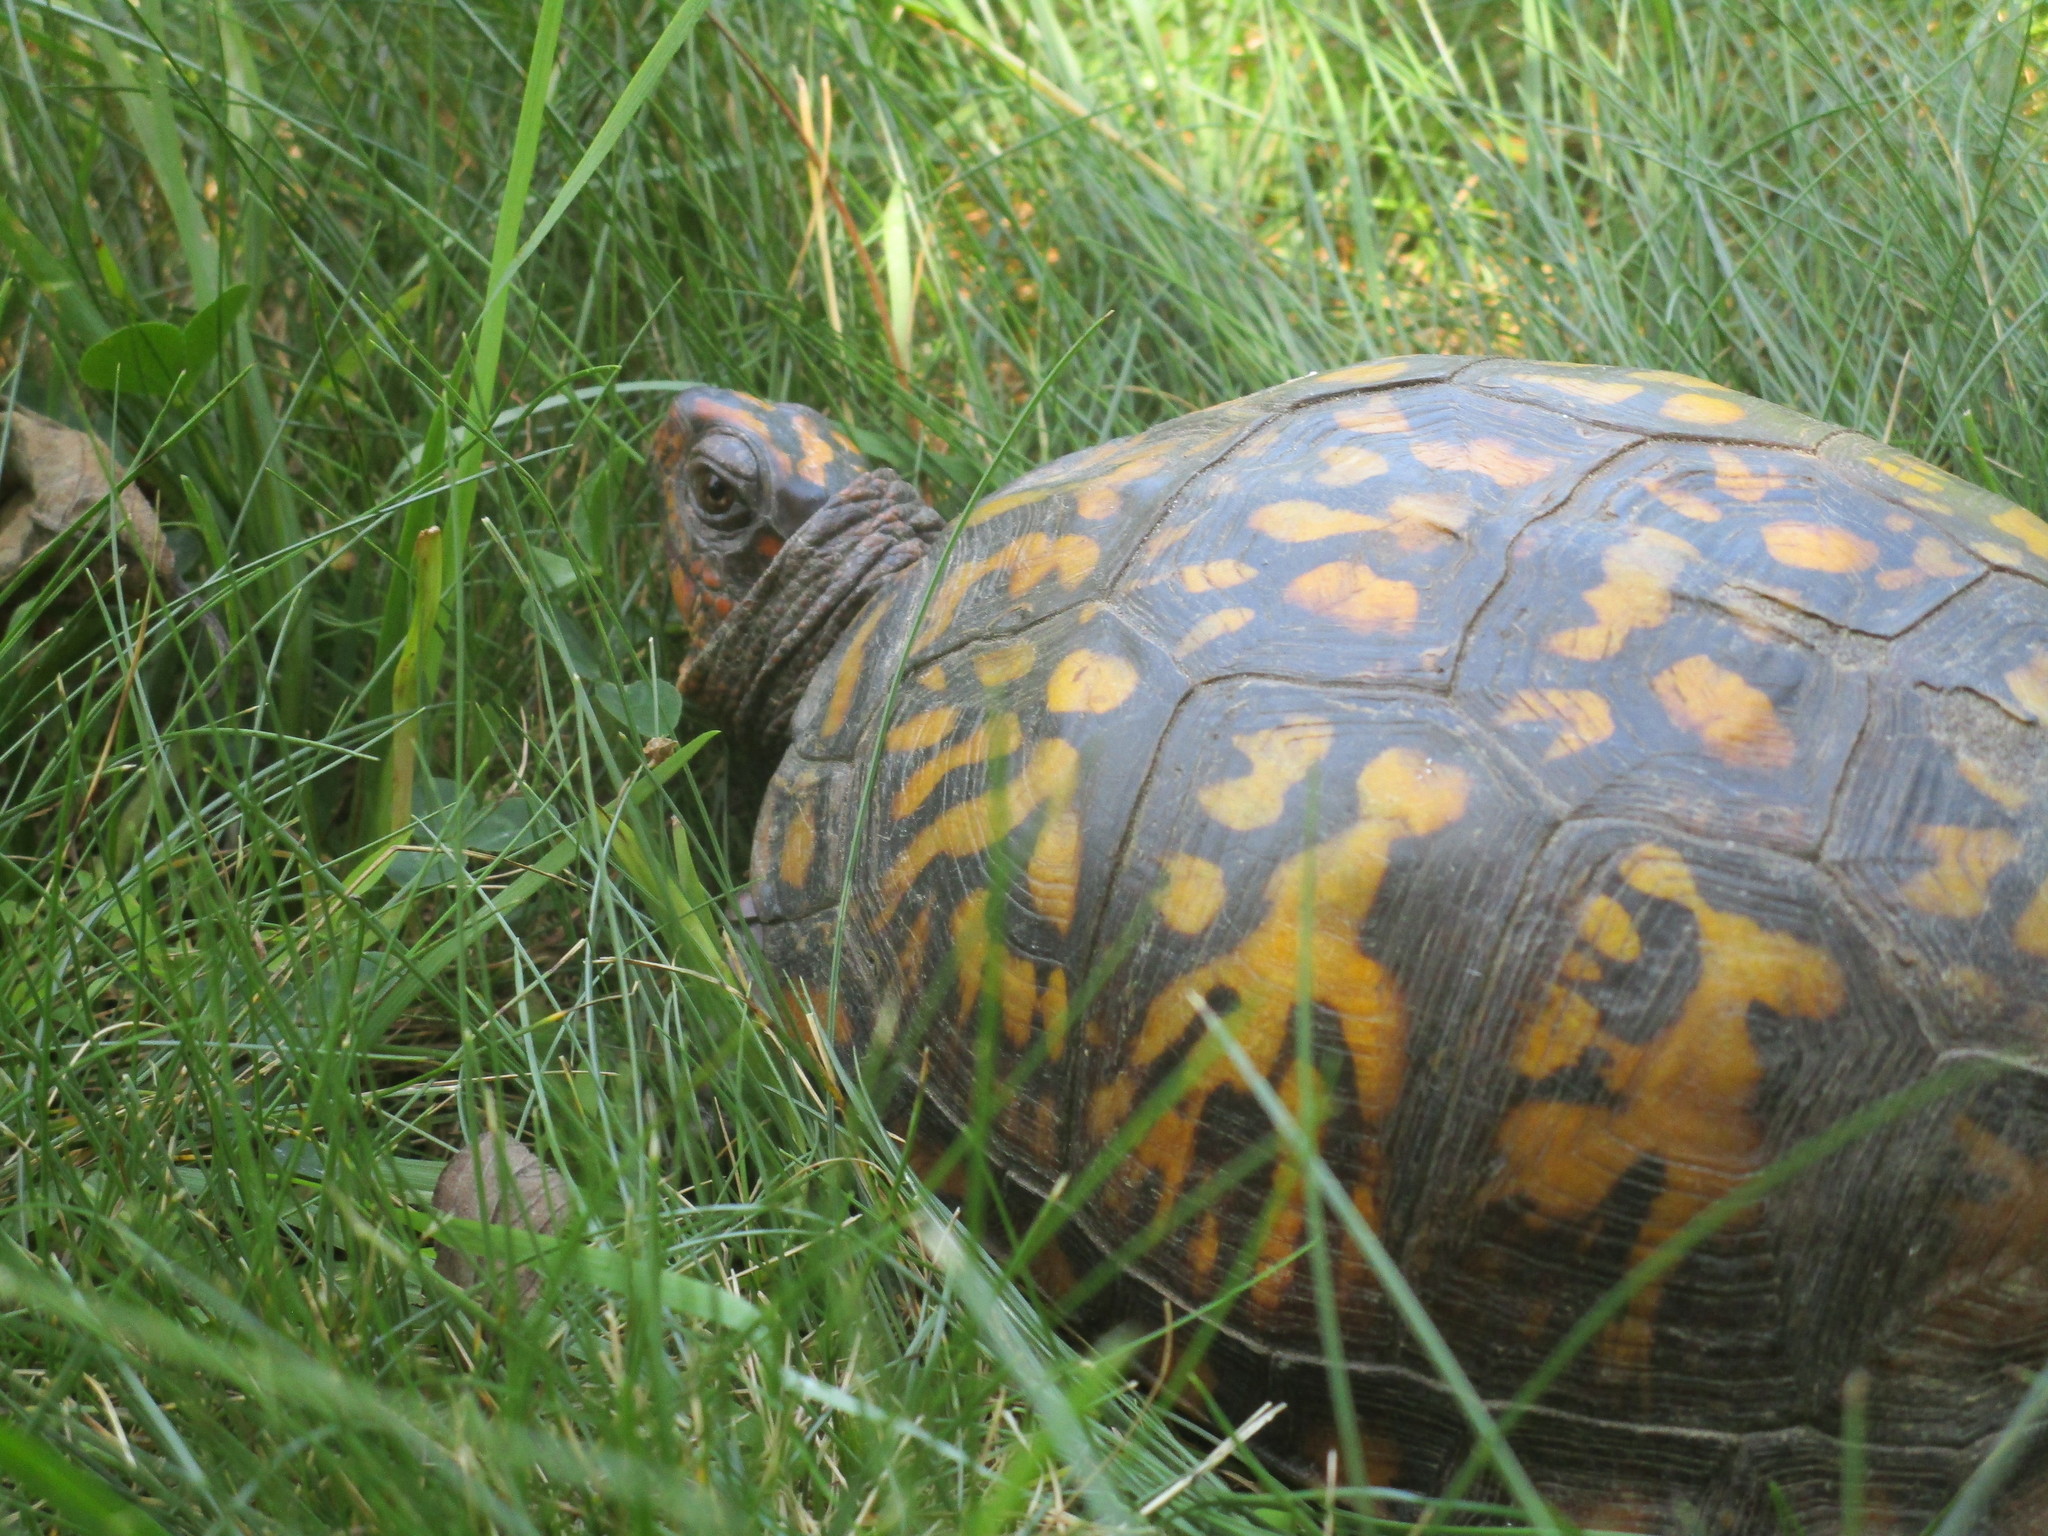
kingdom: Animalia
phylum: Chordata
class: Testudines
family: Emydidae
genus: Terrapene
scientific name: Terrapene carolina
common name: Common box turtle
